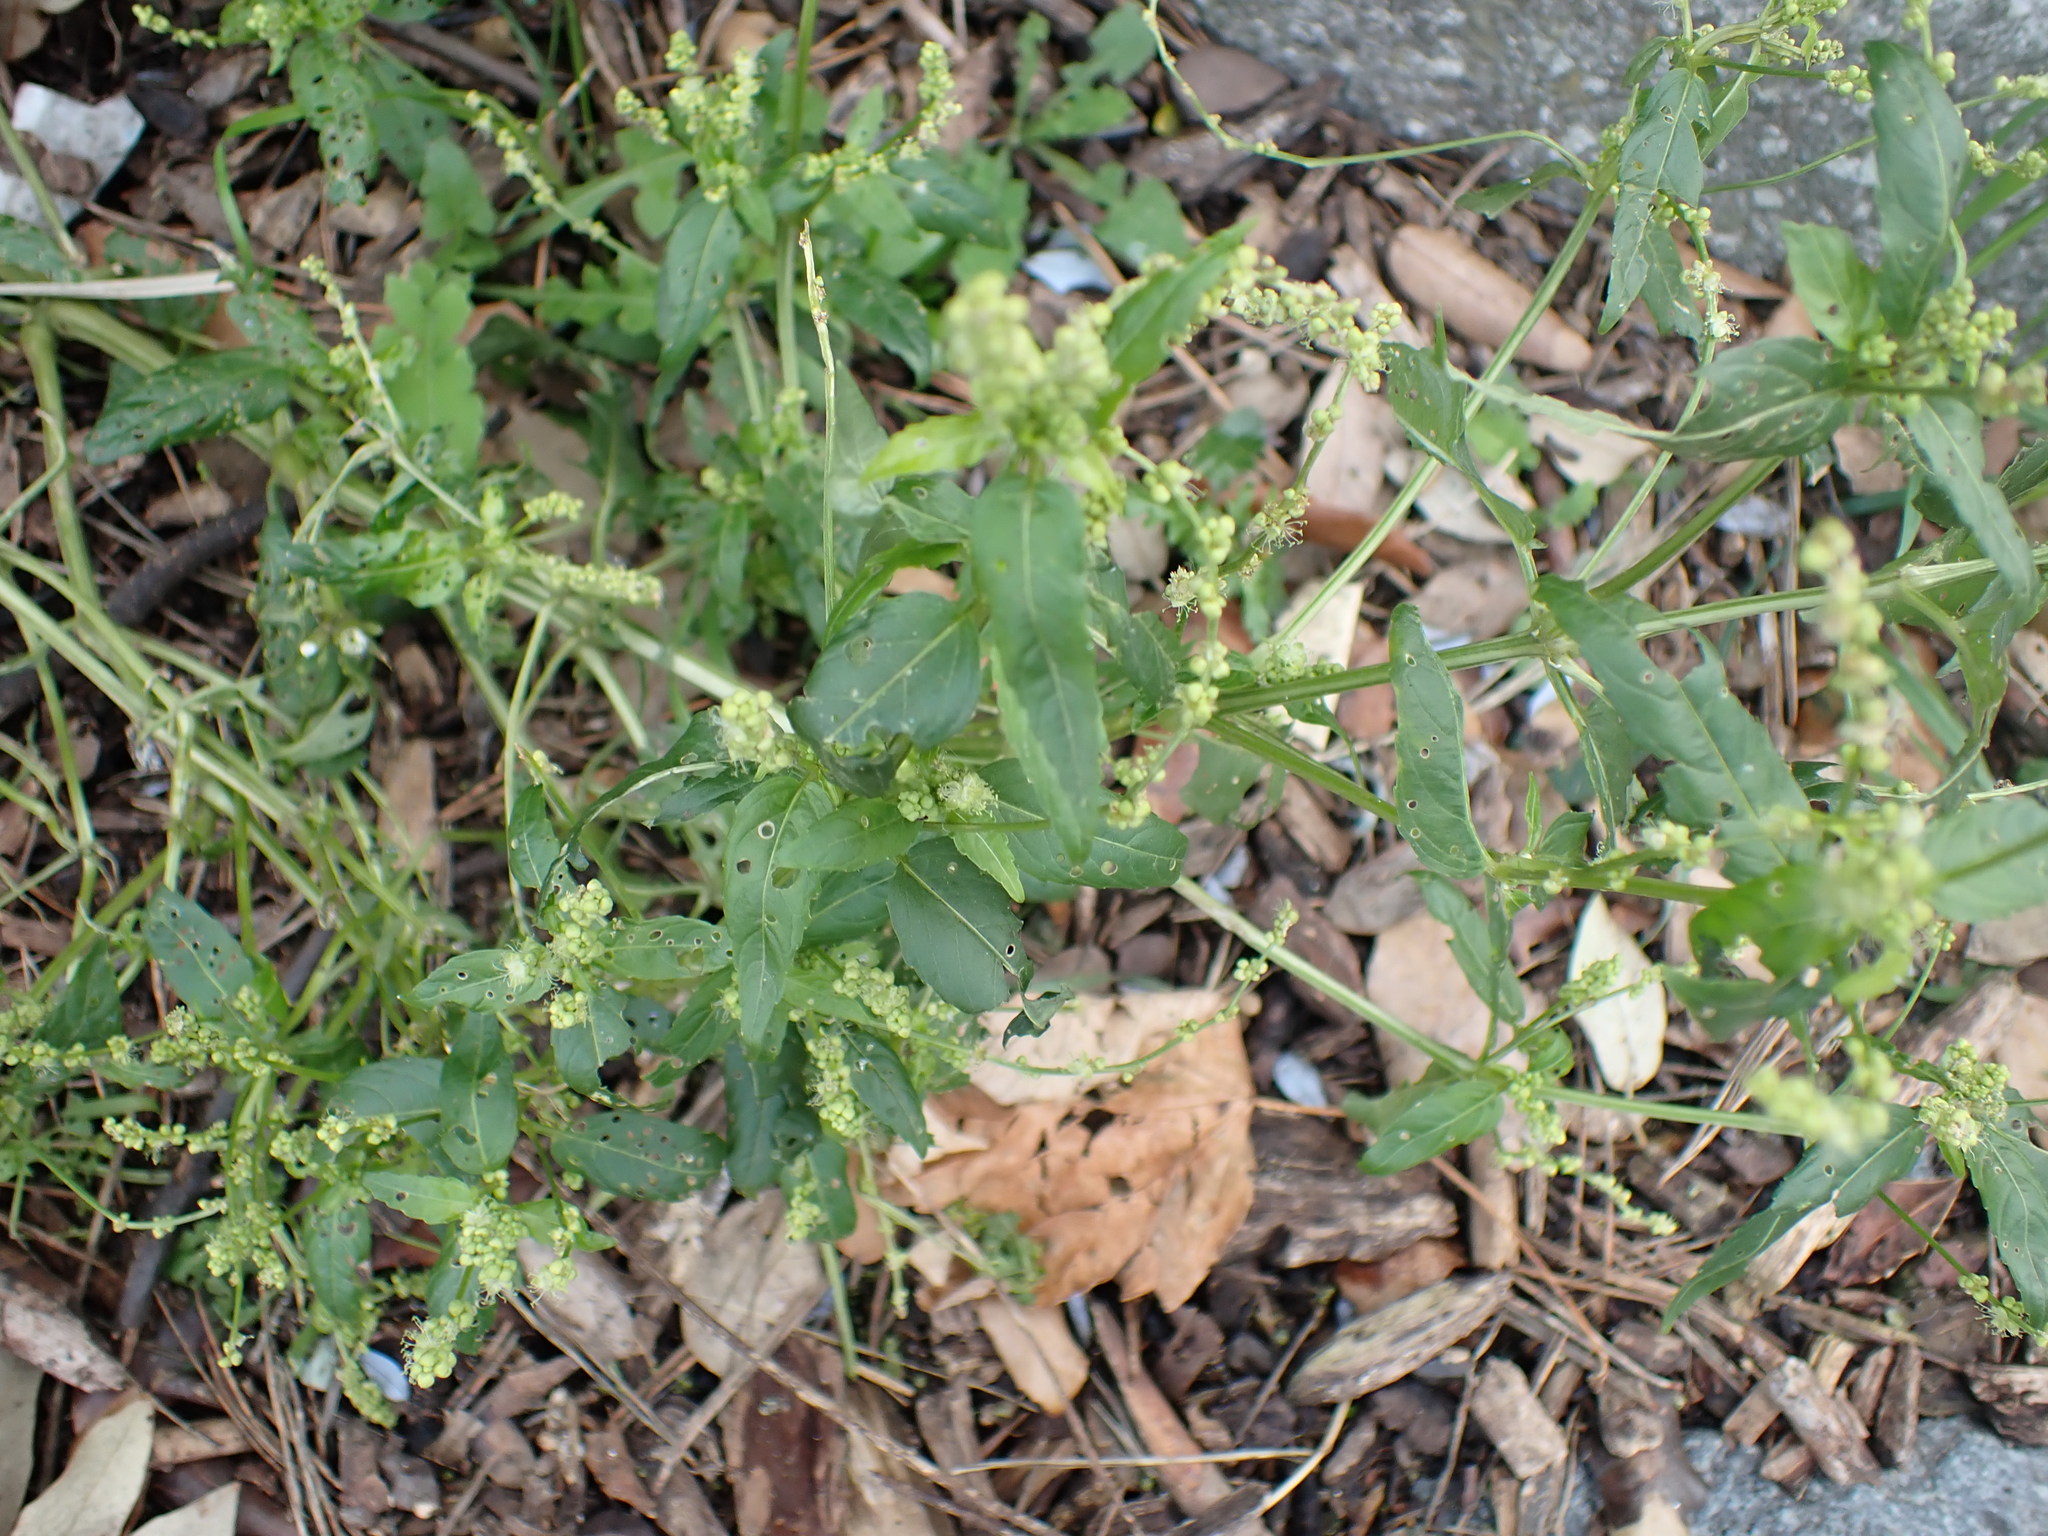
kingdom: Plantae
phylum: Tracheophyta
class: Magnoliopsida
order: Malpighiales
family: Euphorbiaceae
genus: Mercurialis
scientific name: Mercurialis annua
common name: Annual mercury
